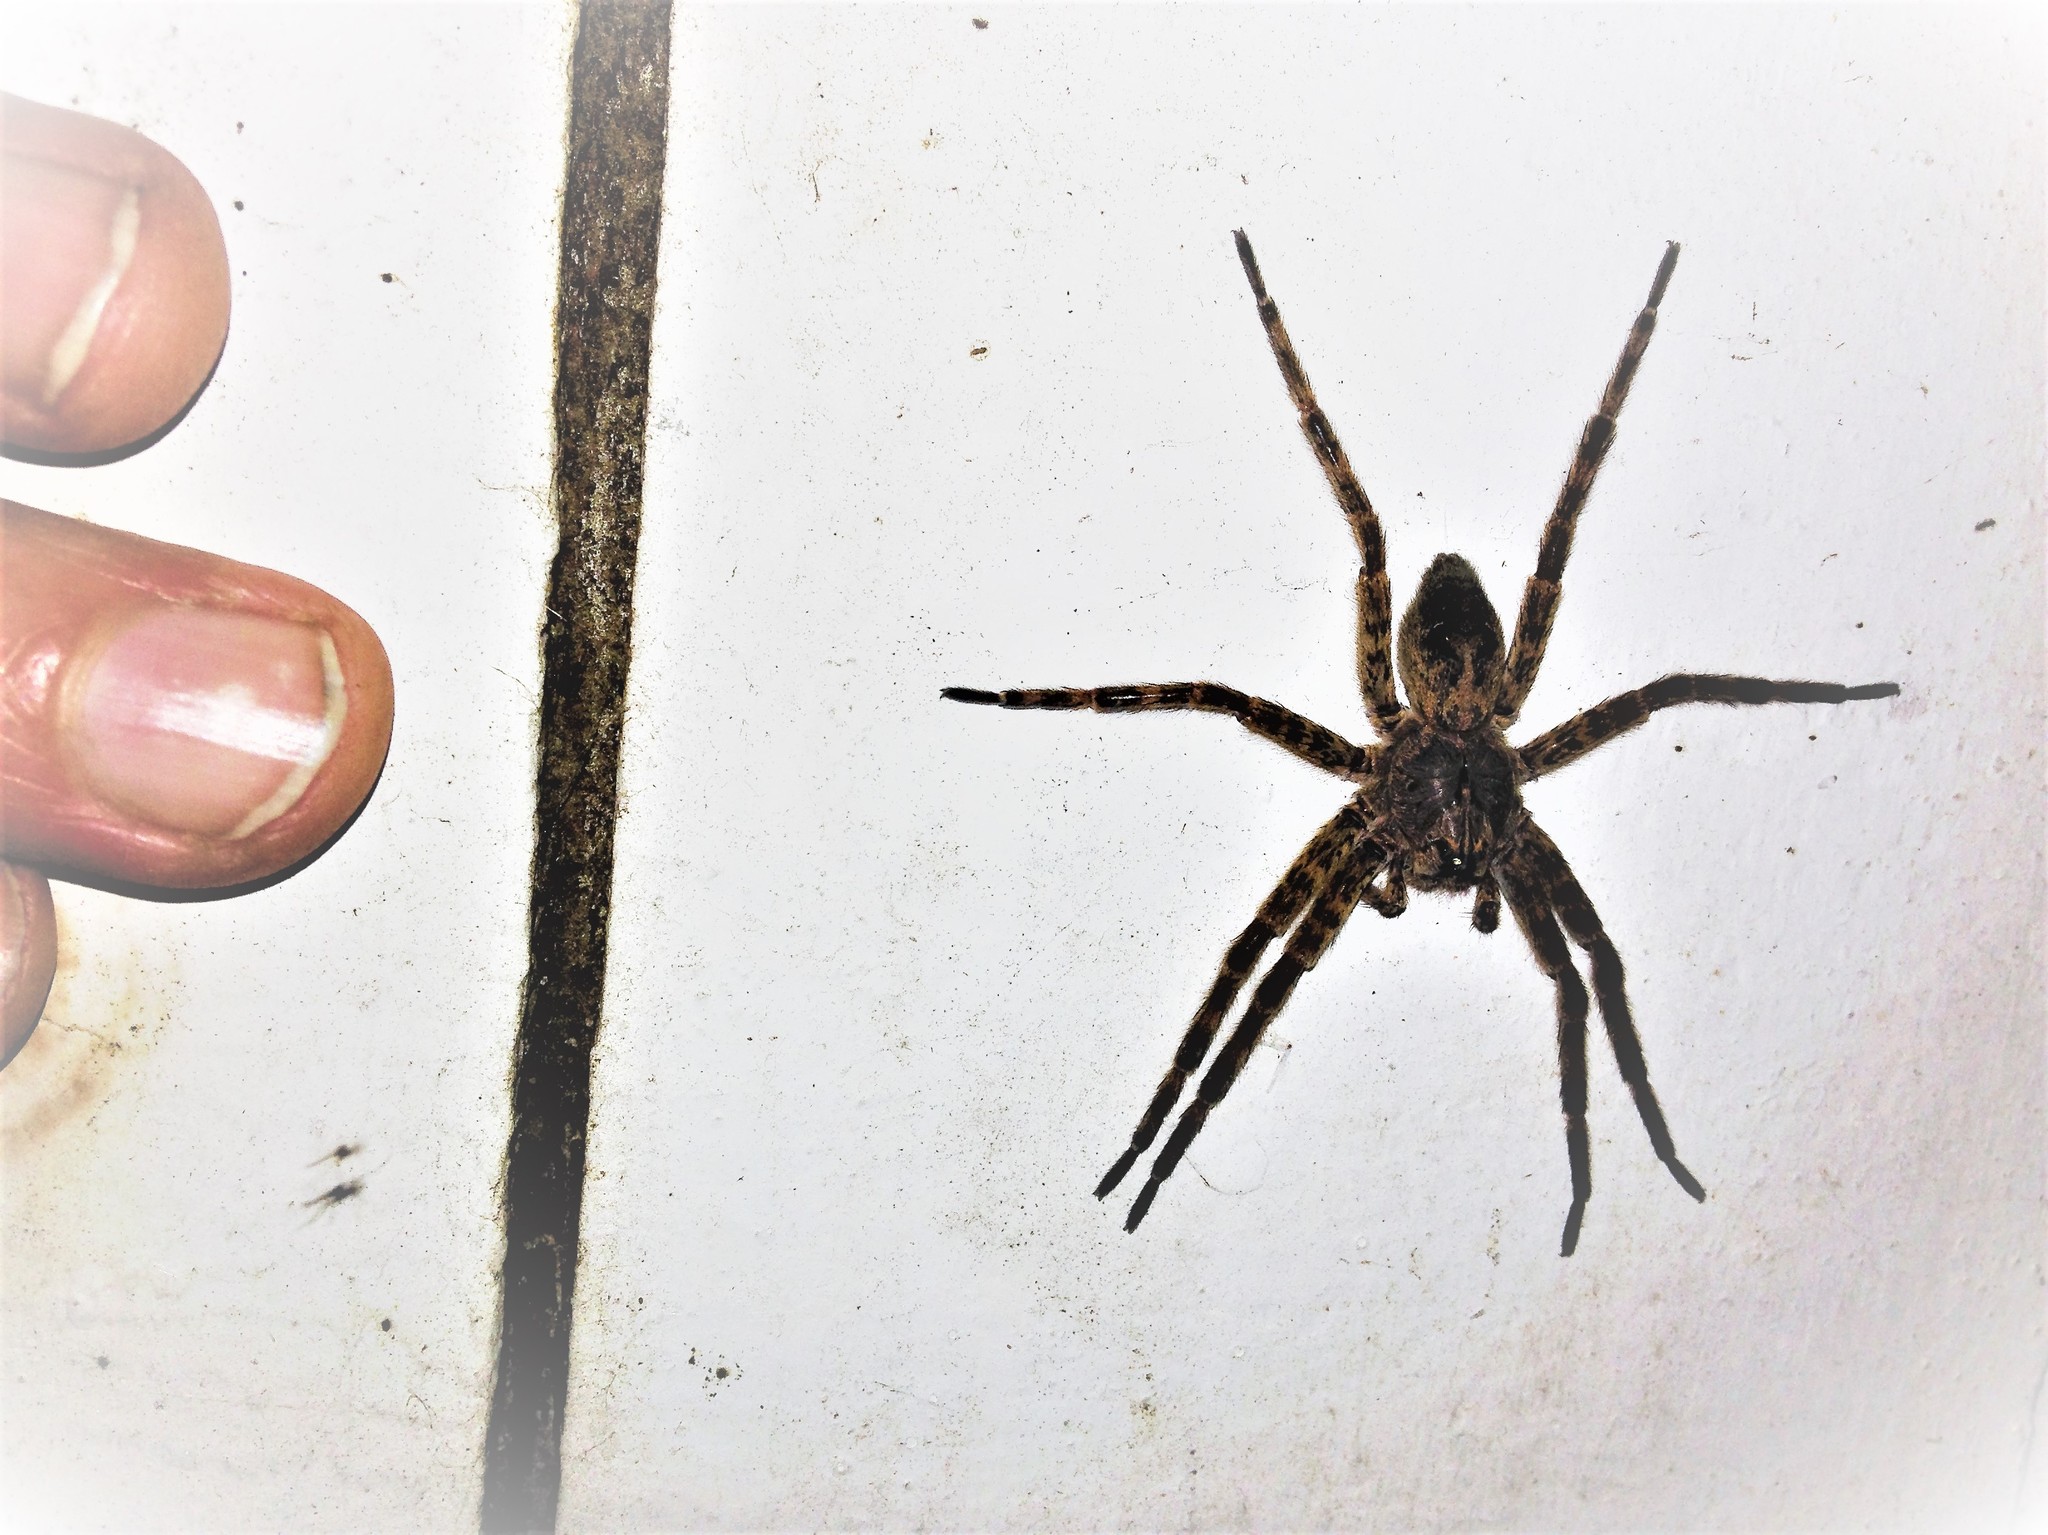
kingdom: Animalia
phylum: Arthropoda
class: Arachnida
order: Araneae
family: Pisauridae
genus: Dolomedes
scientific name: Dolomedes tenebrosus
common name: Dark fishing spider
